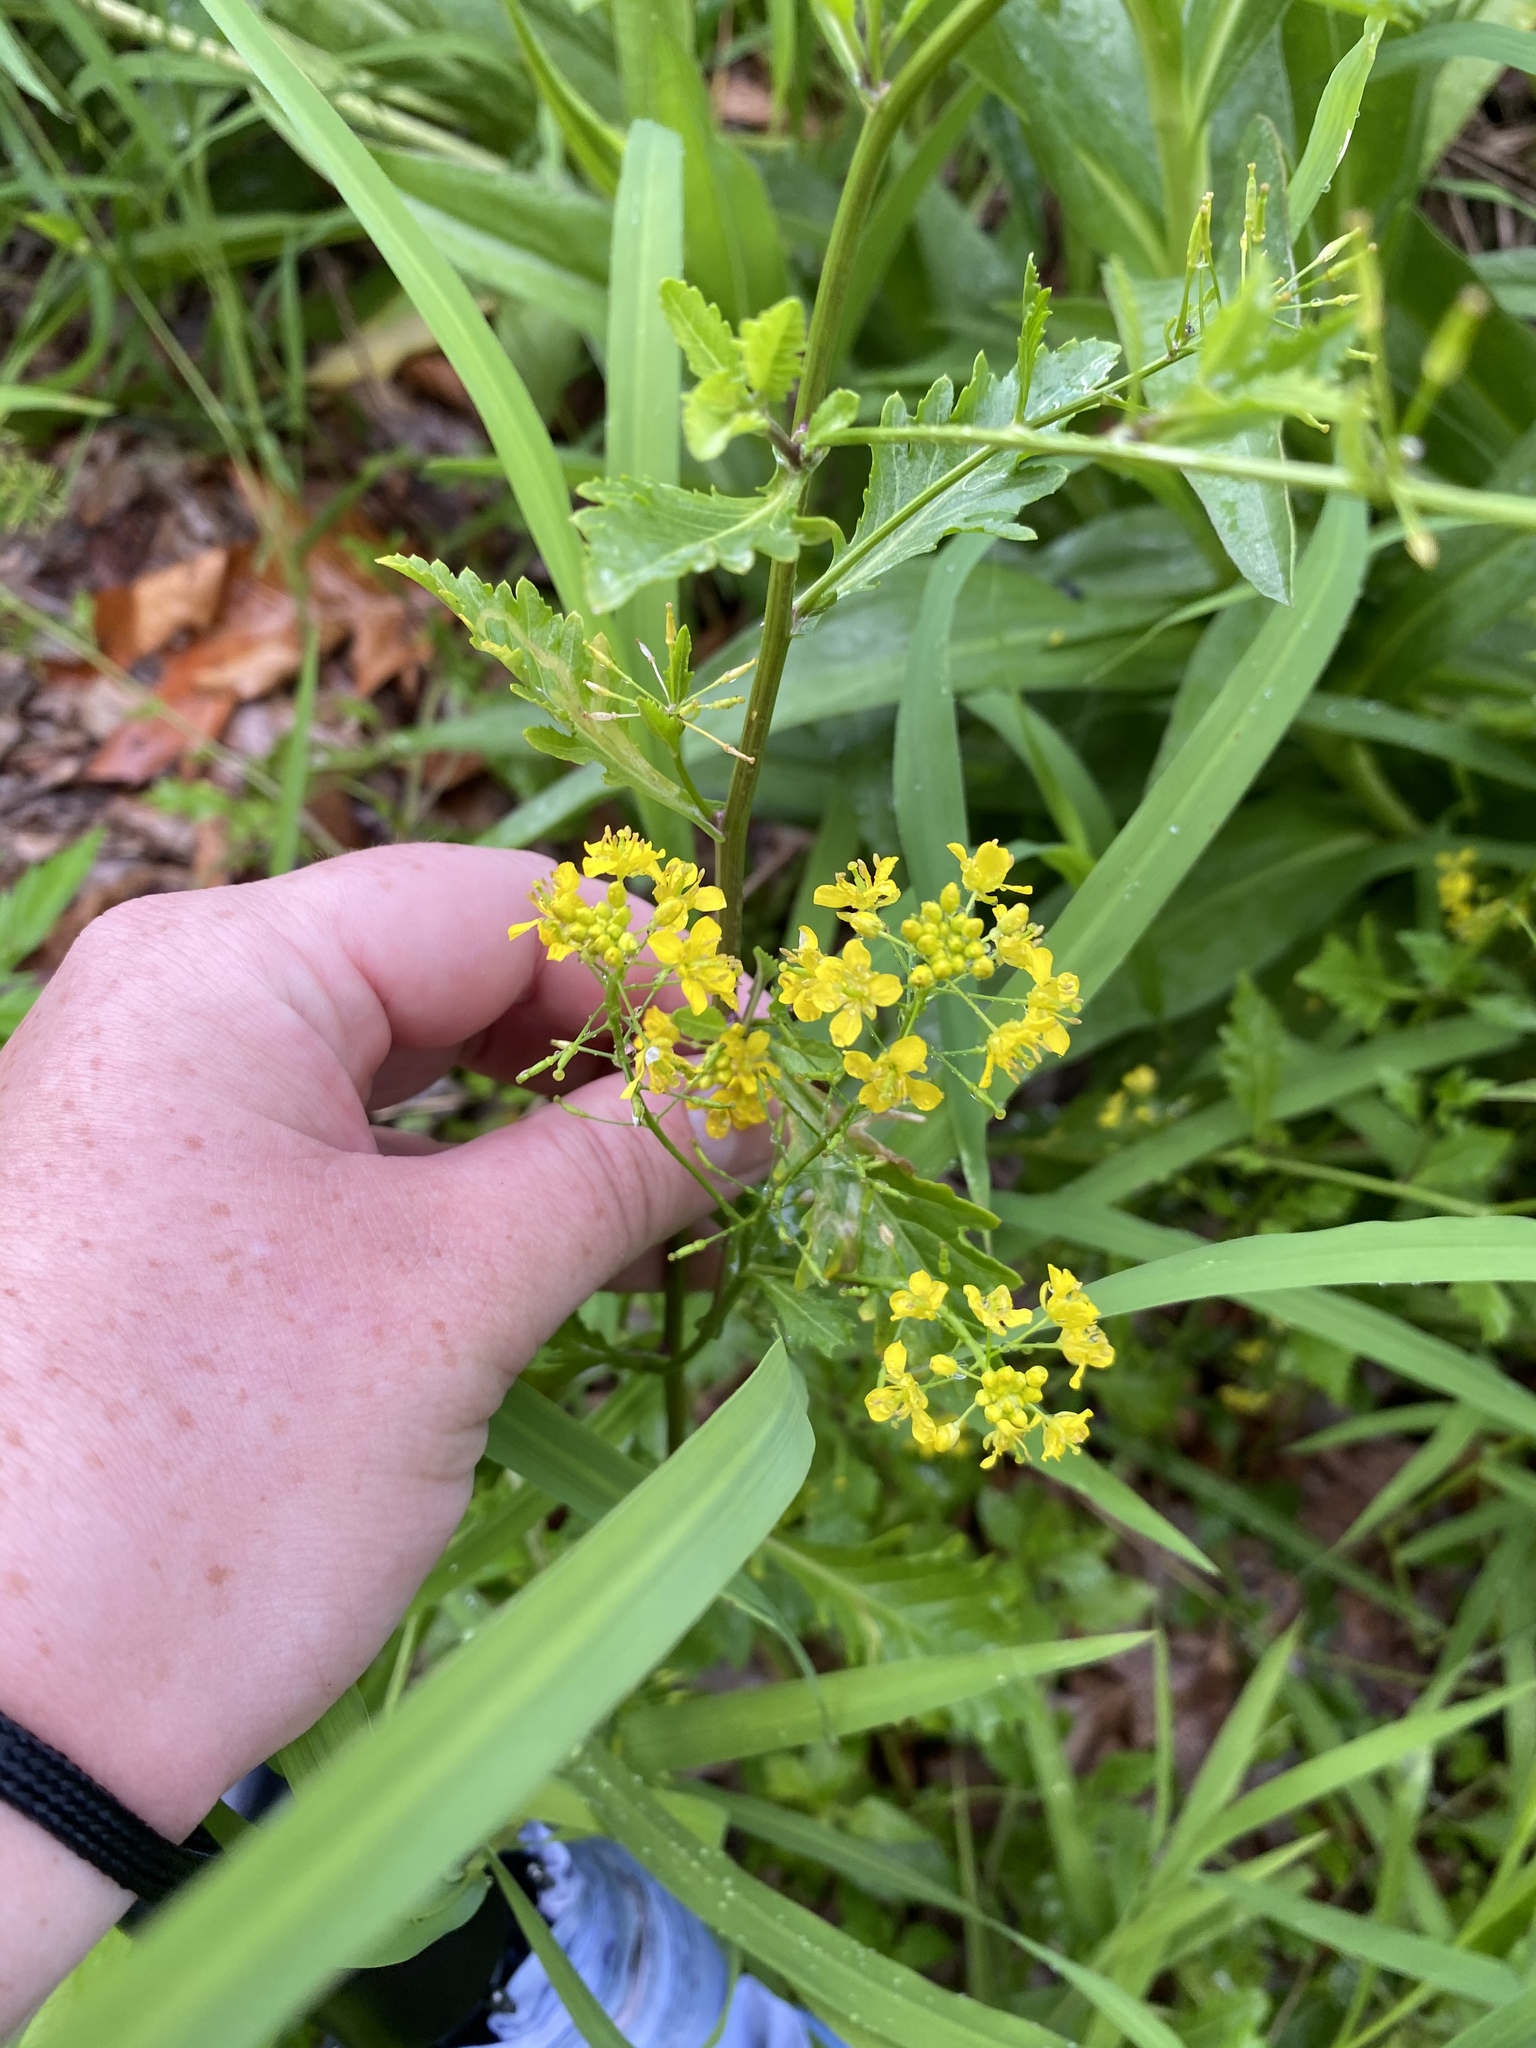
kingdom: Plantae
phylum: Tracheophyta
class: Magnoliopsida
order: Brassicales
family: Brassicaceae
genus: Rorippa
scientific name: Rorippa palustris
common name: Marsh yellow-cress
